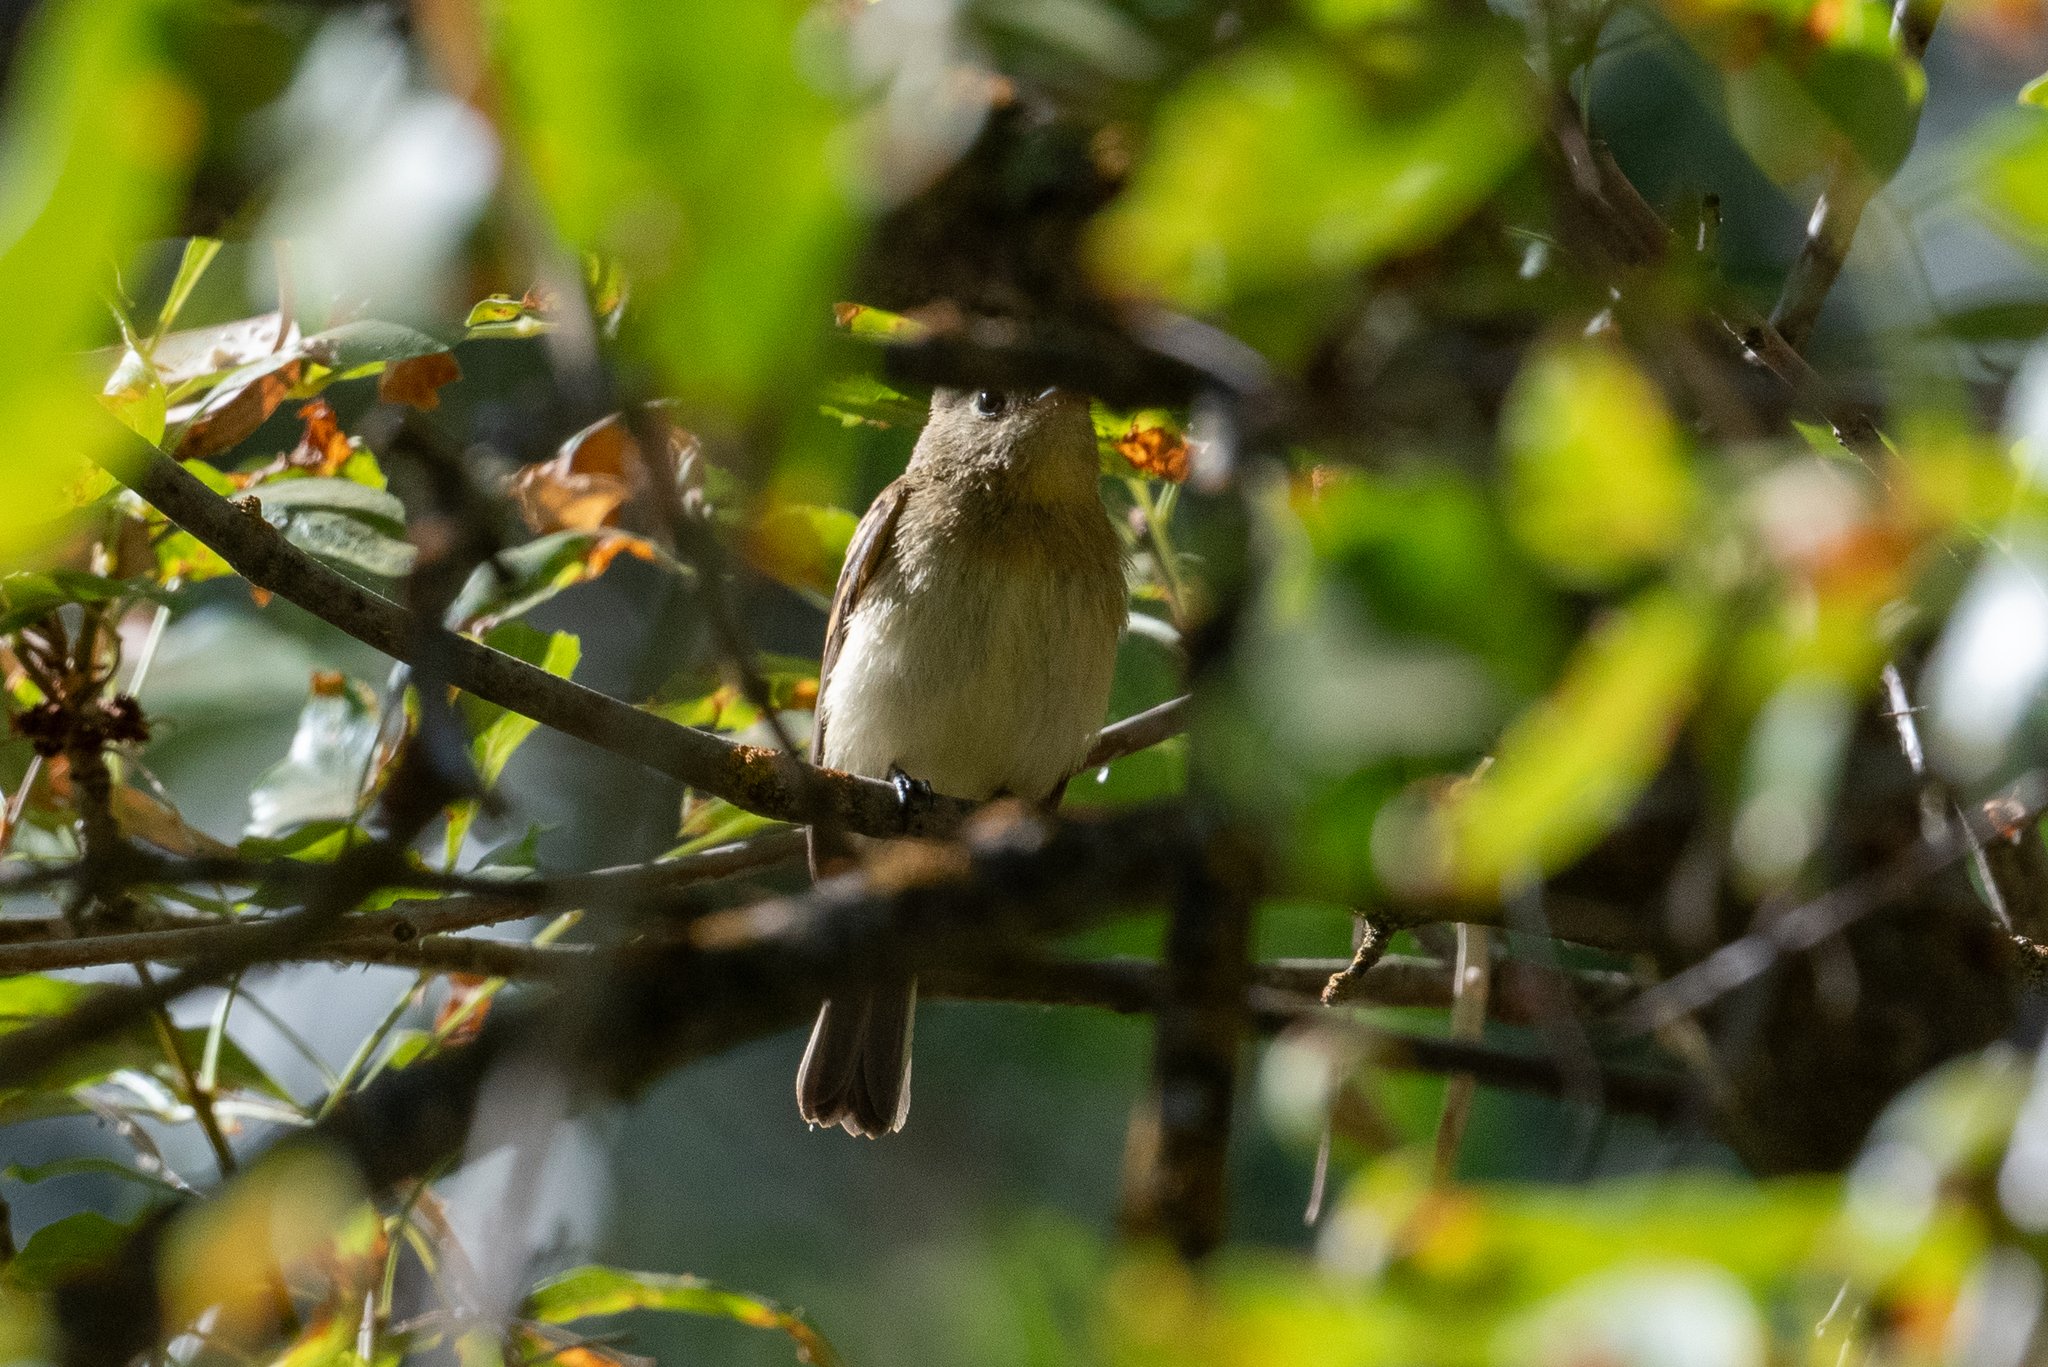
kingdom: Animalia
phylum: Chordata
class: Aves
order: Passeriformes
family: Tyrannidae
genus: Empidonax
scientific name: Empidonax difficilis
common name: Pacific-slope flycatcher
